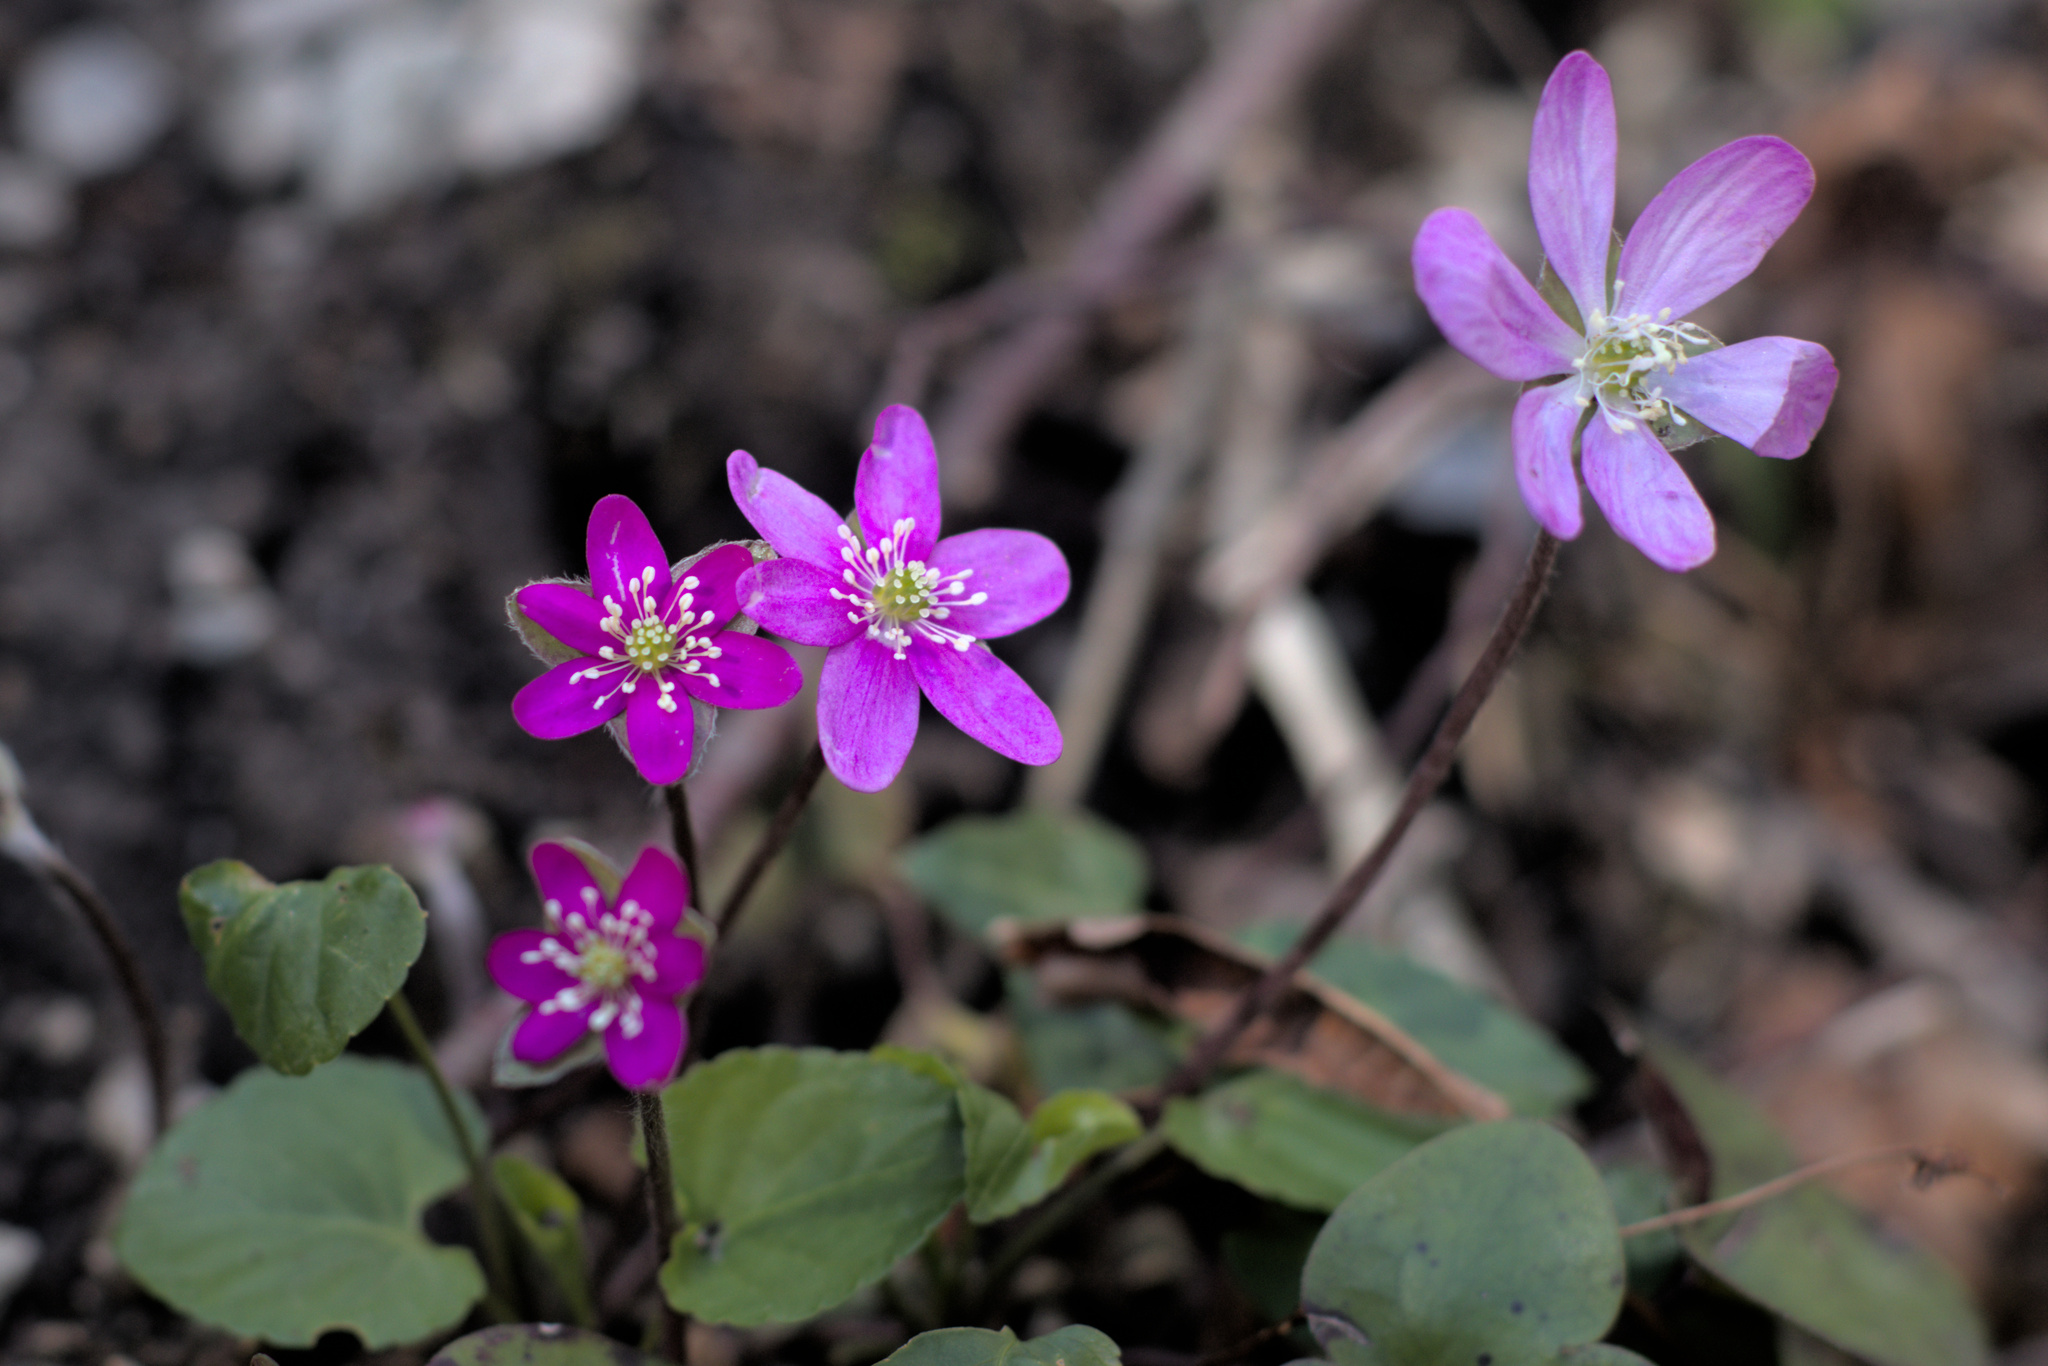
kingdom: Plantae
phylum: Tracheophyta
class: Magnoliopsida
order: Ranunculales
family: Ranunculaceae
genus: Hepatica
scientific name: Hepatica nobilis
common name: Liverleaf
